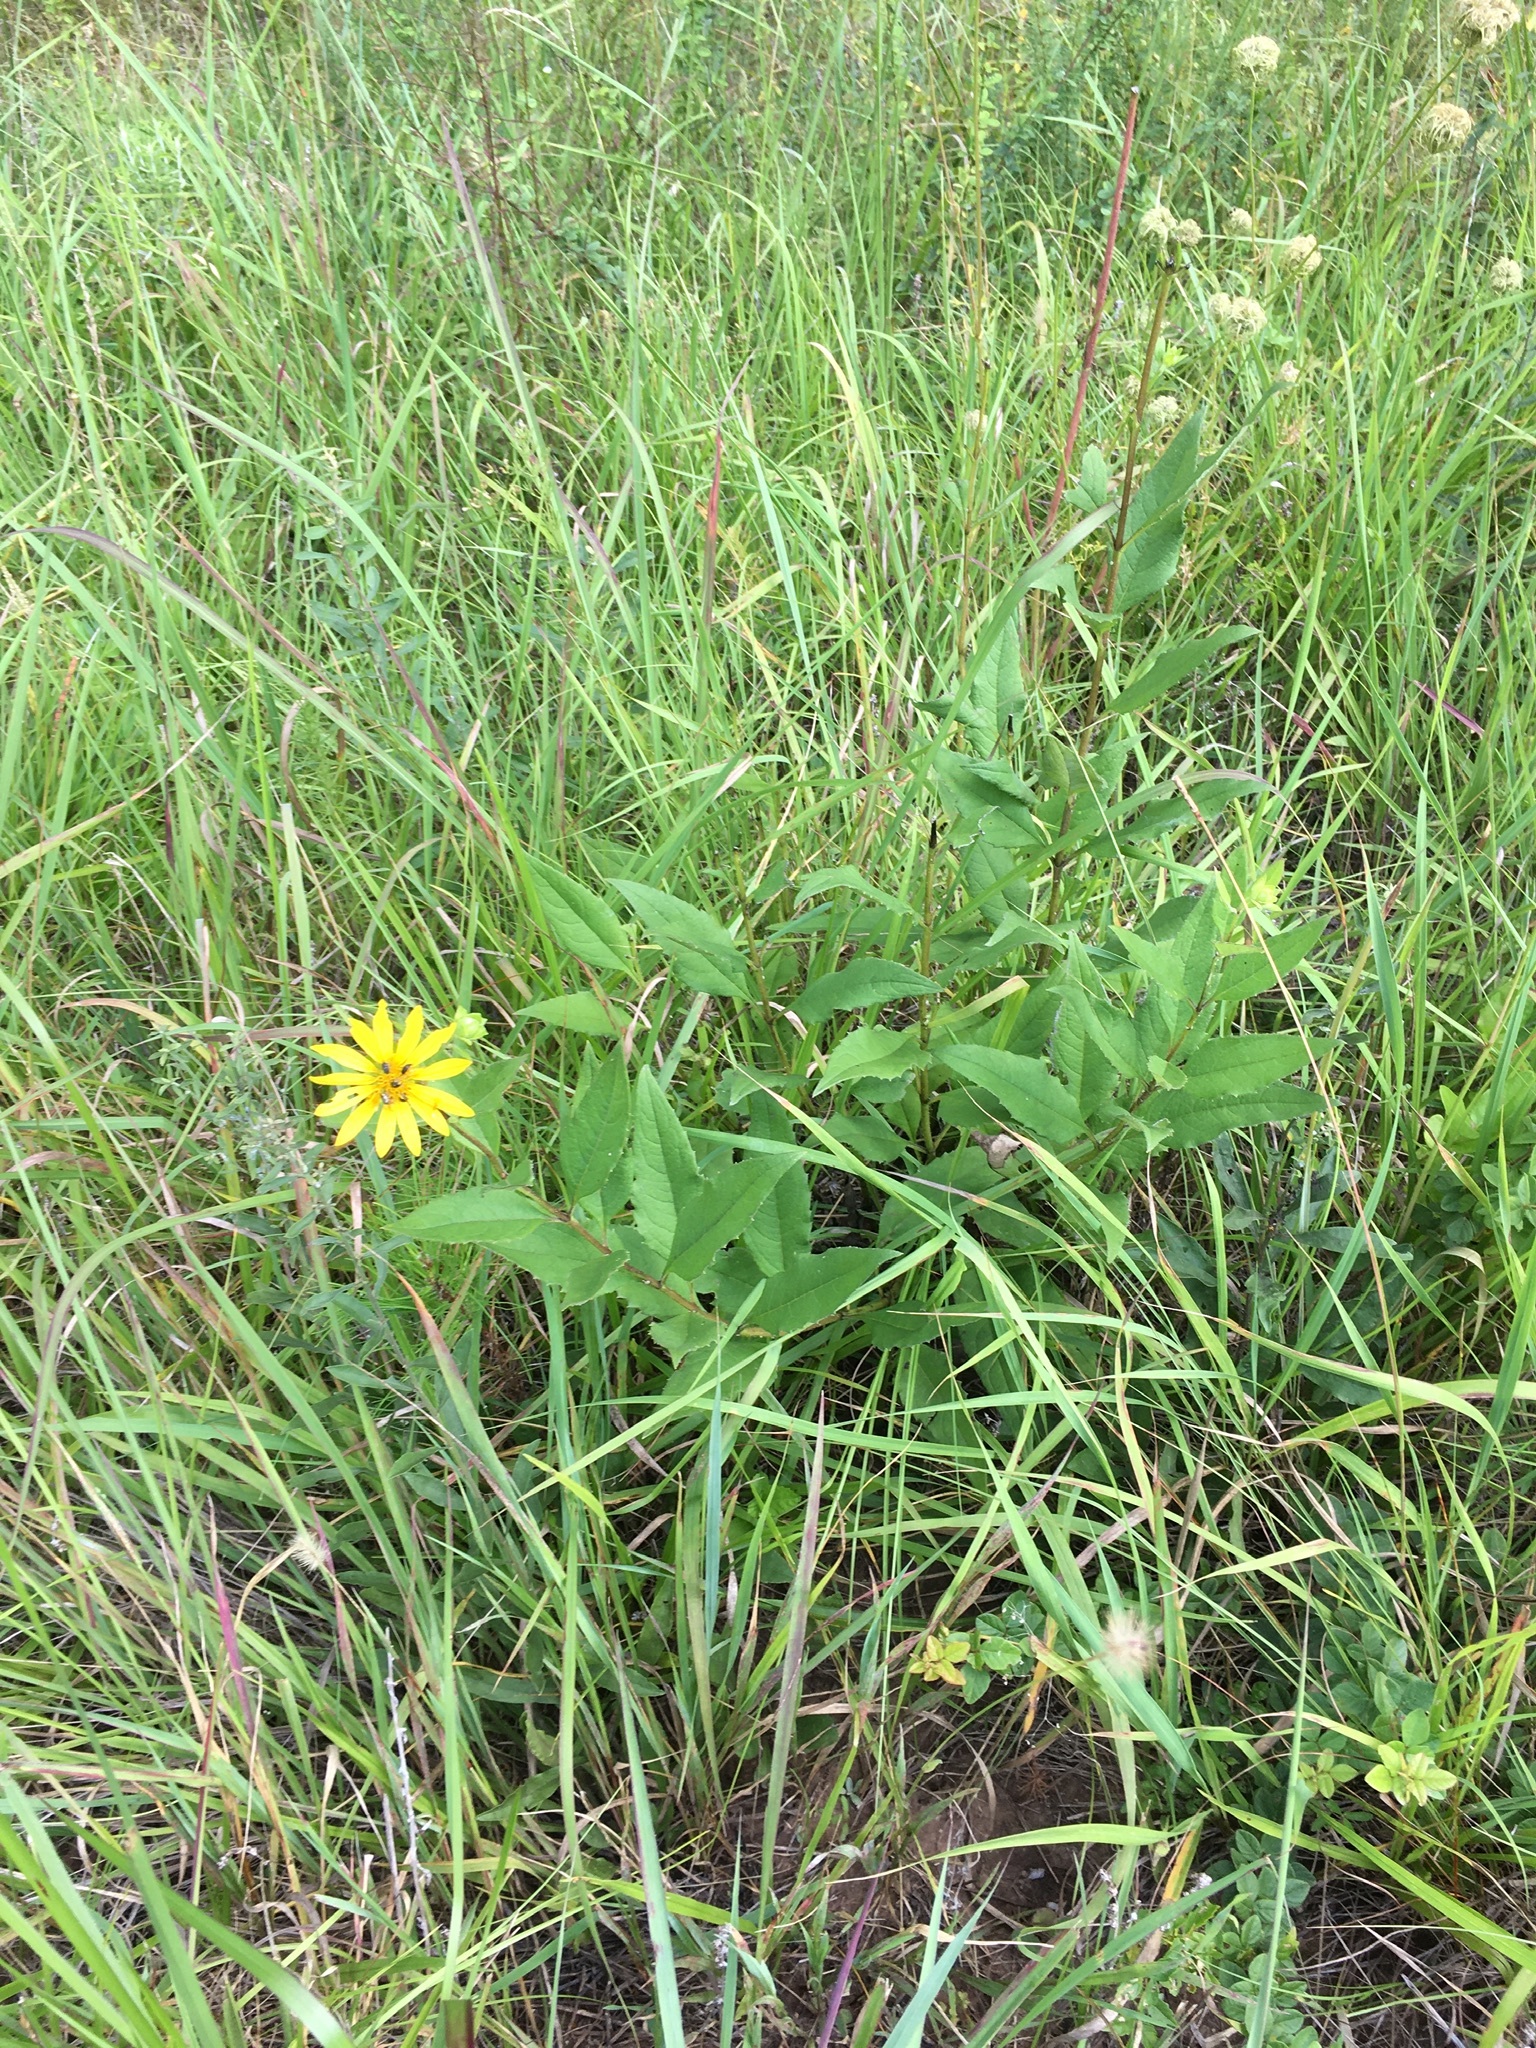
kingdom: Plantae
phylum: Tracheophyta
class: Magnoliopsida
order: Asterales
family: Asteraceae
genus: Silphium
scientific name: Silphium asteriscus
